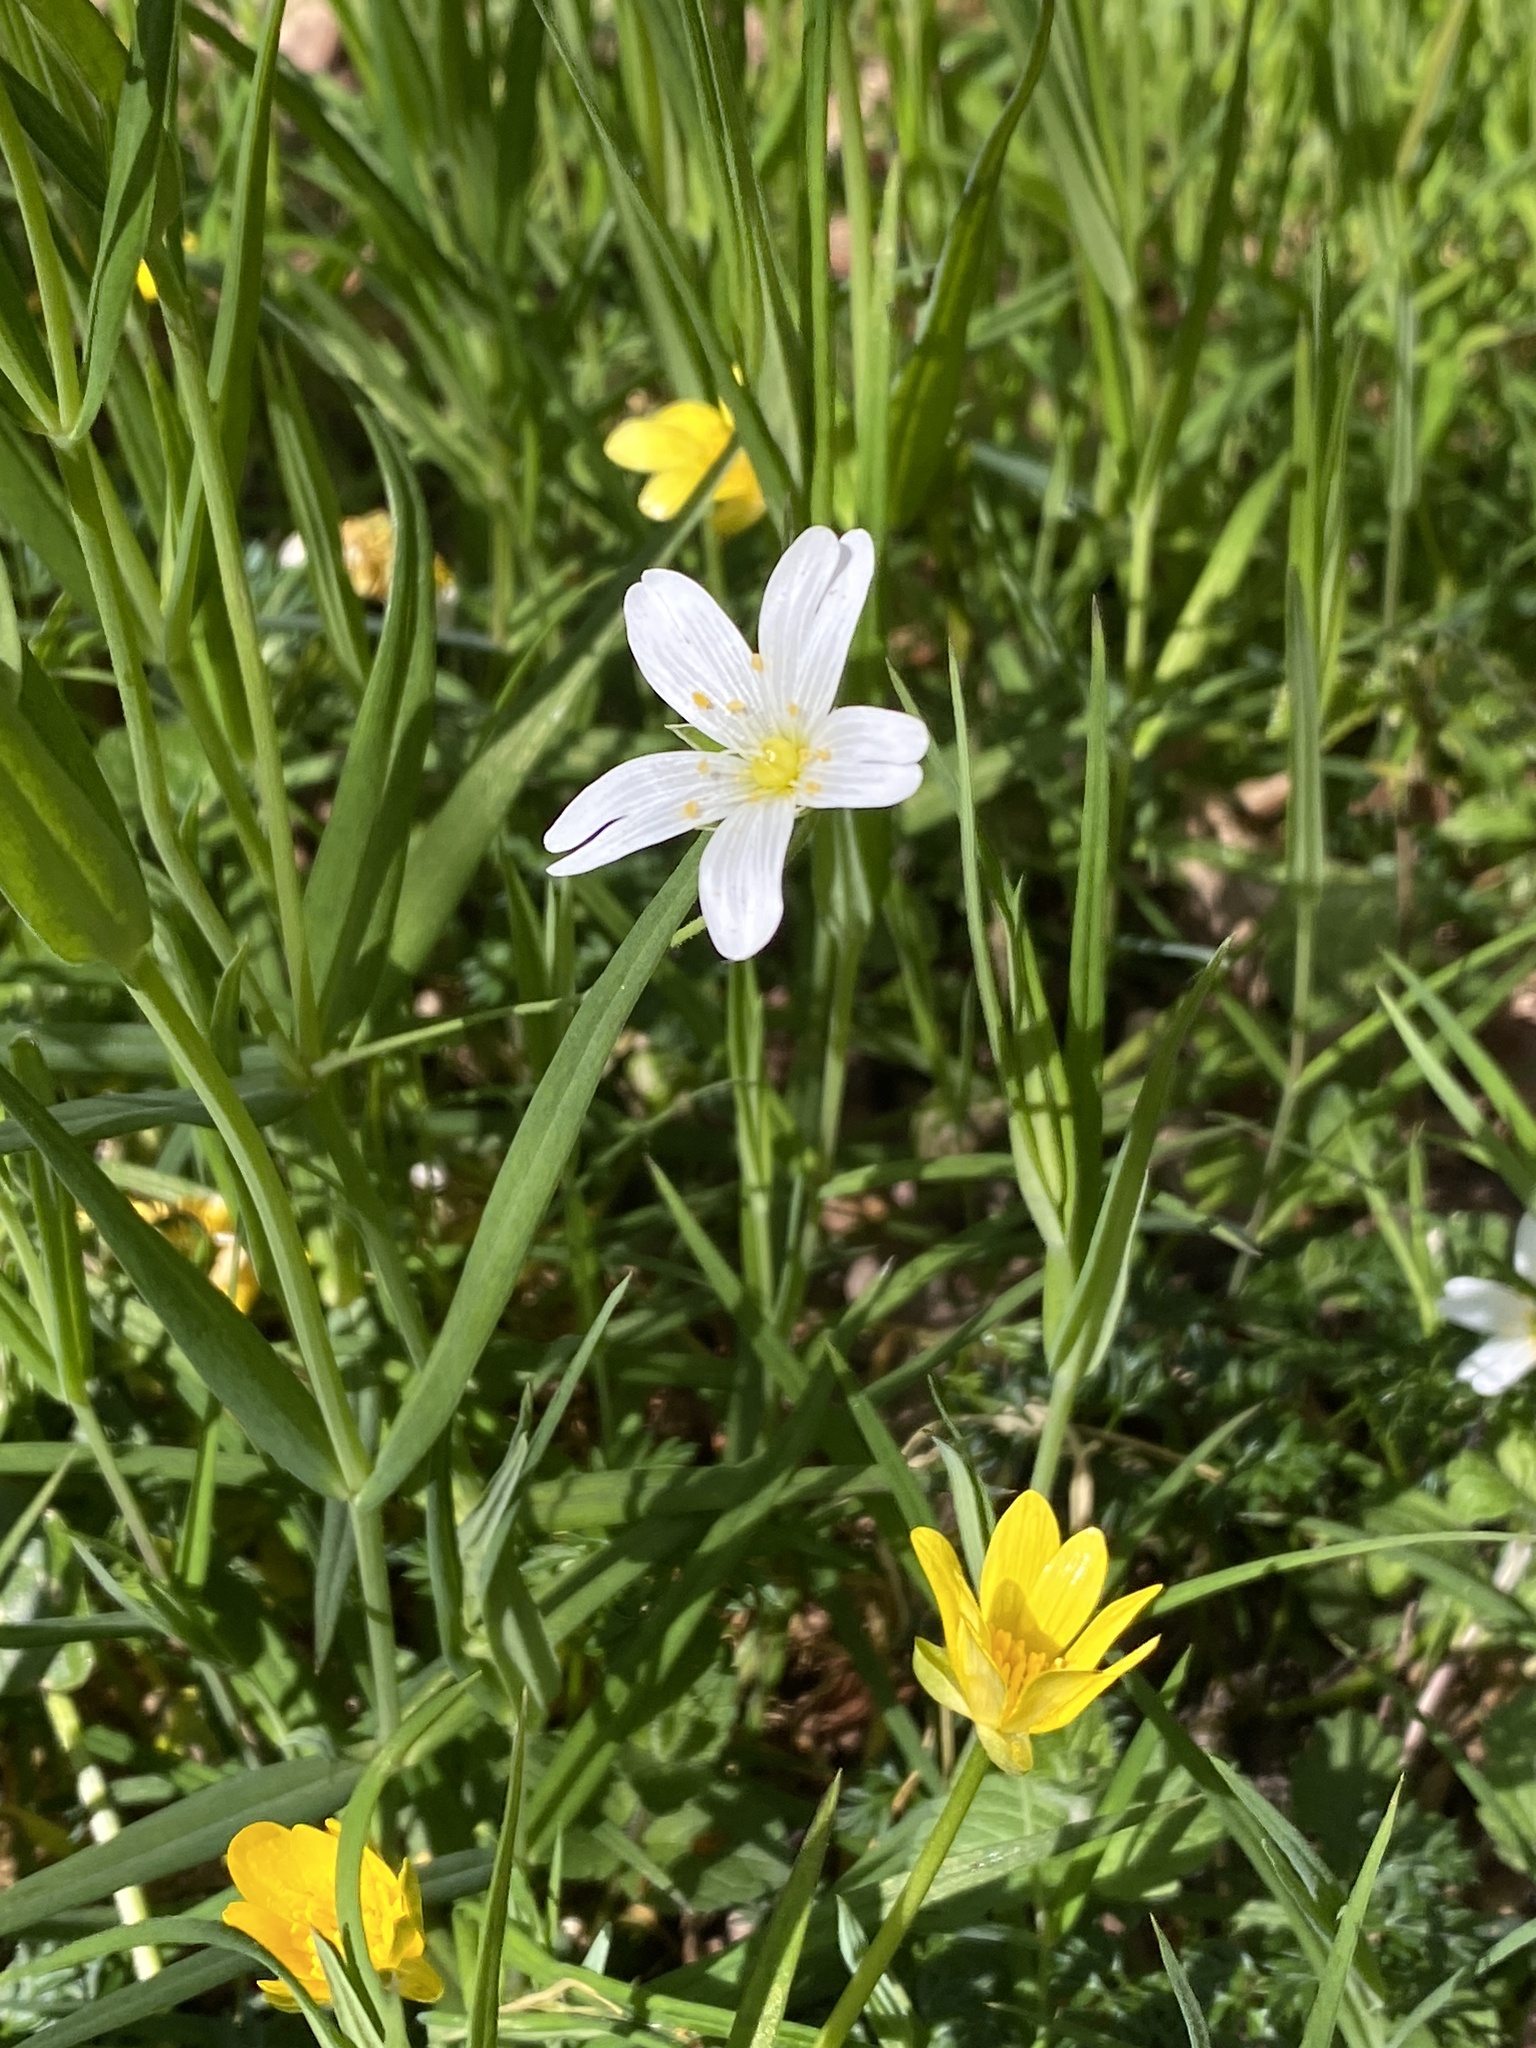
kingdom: Plantae
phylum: Tracheophyta
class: Magnoliopsida
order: Caryophyllales
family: Caryophyllaceae
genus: Rabelera
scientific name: Rabelera holostea
